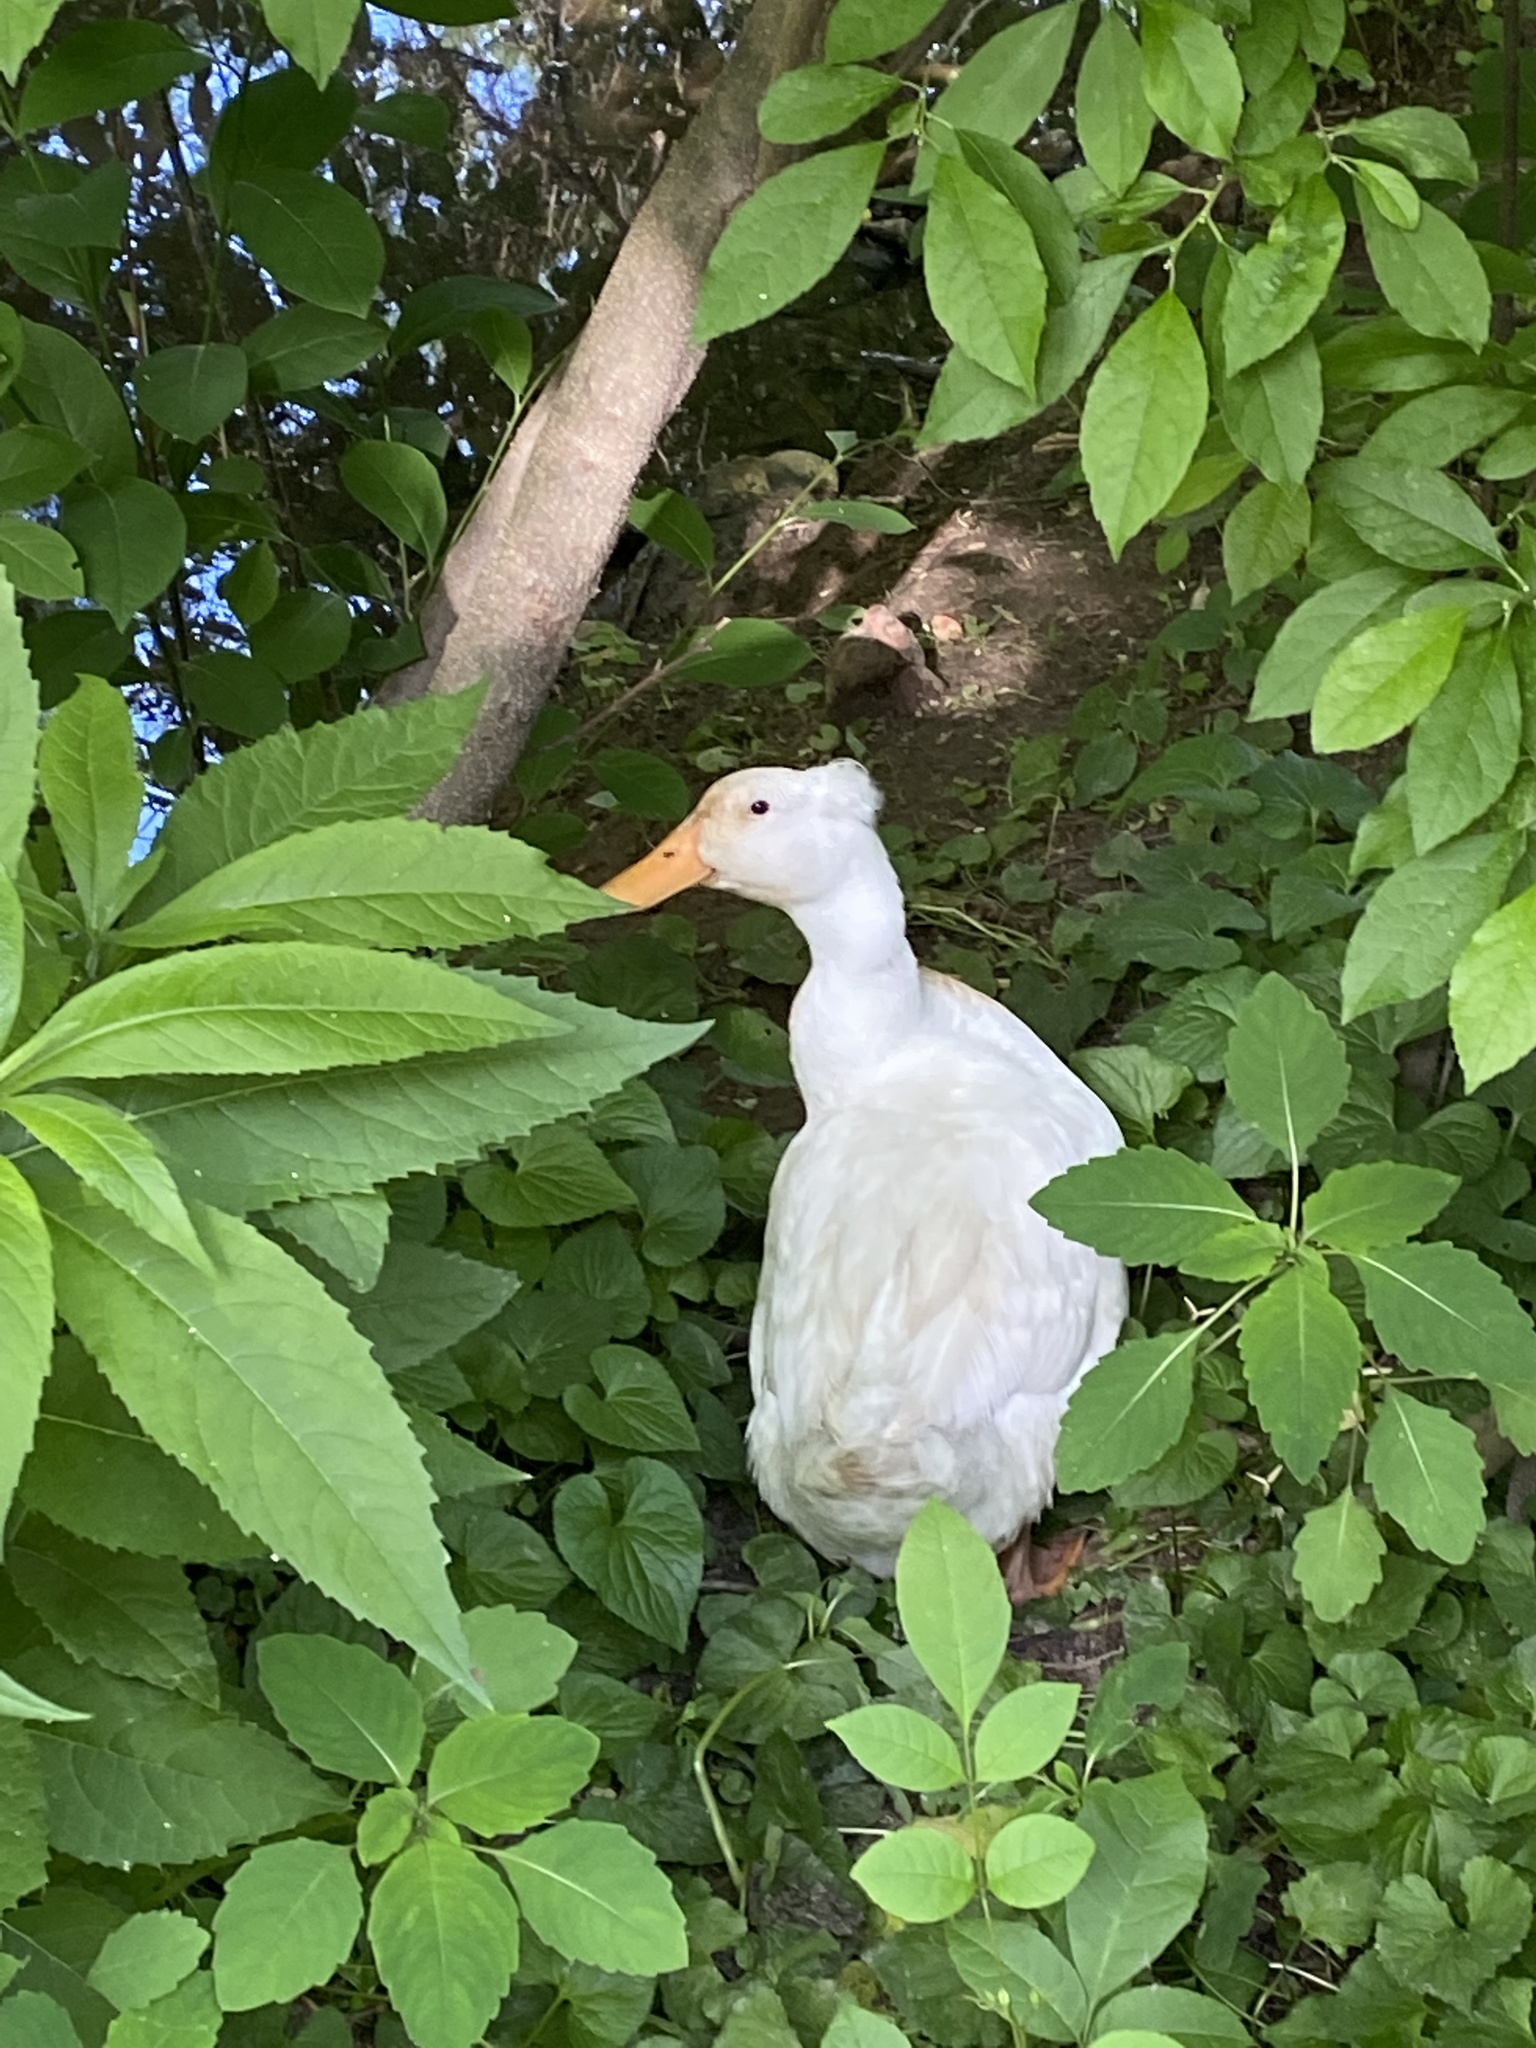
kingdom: Animalia
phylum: Chordata
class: Aves
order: Anseriformes
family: Anatidae
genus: Anas
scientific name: Anas platyrhynchos
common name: Mallard
